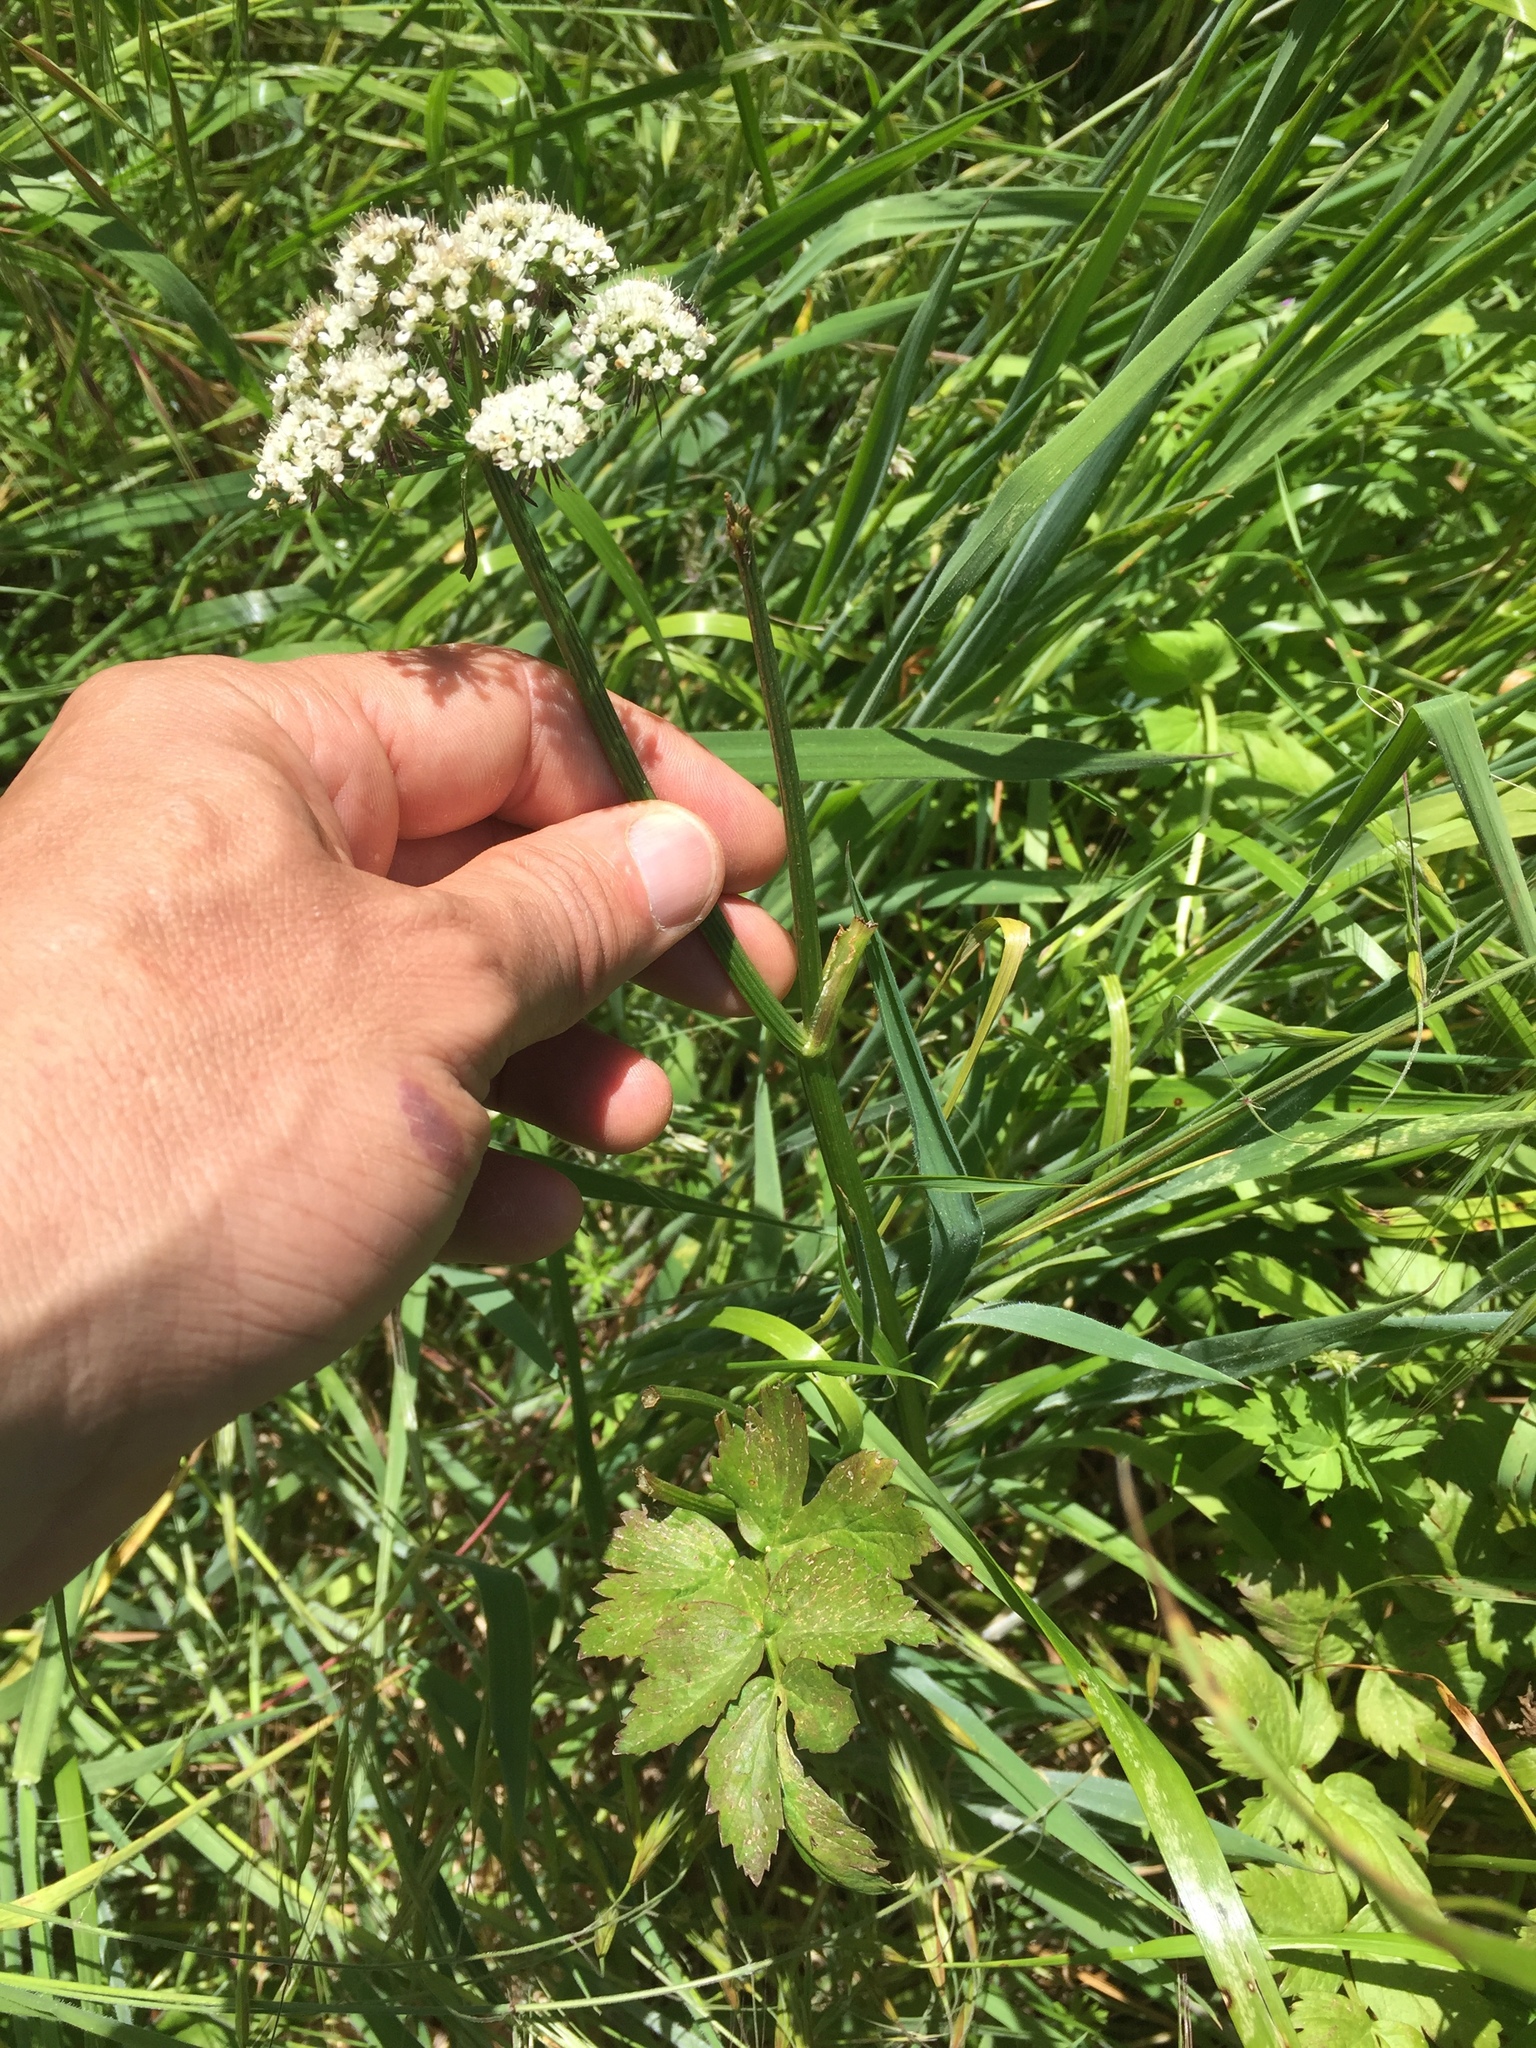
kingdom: Plantae
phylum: Tracheophyta
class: Magnoliopsida
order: Apiales
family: Apiaceae
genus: Oenanthe
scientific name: Oenanthe sarmentosa
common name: American water-parsley
